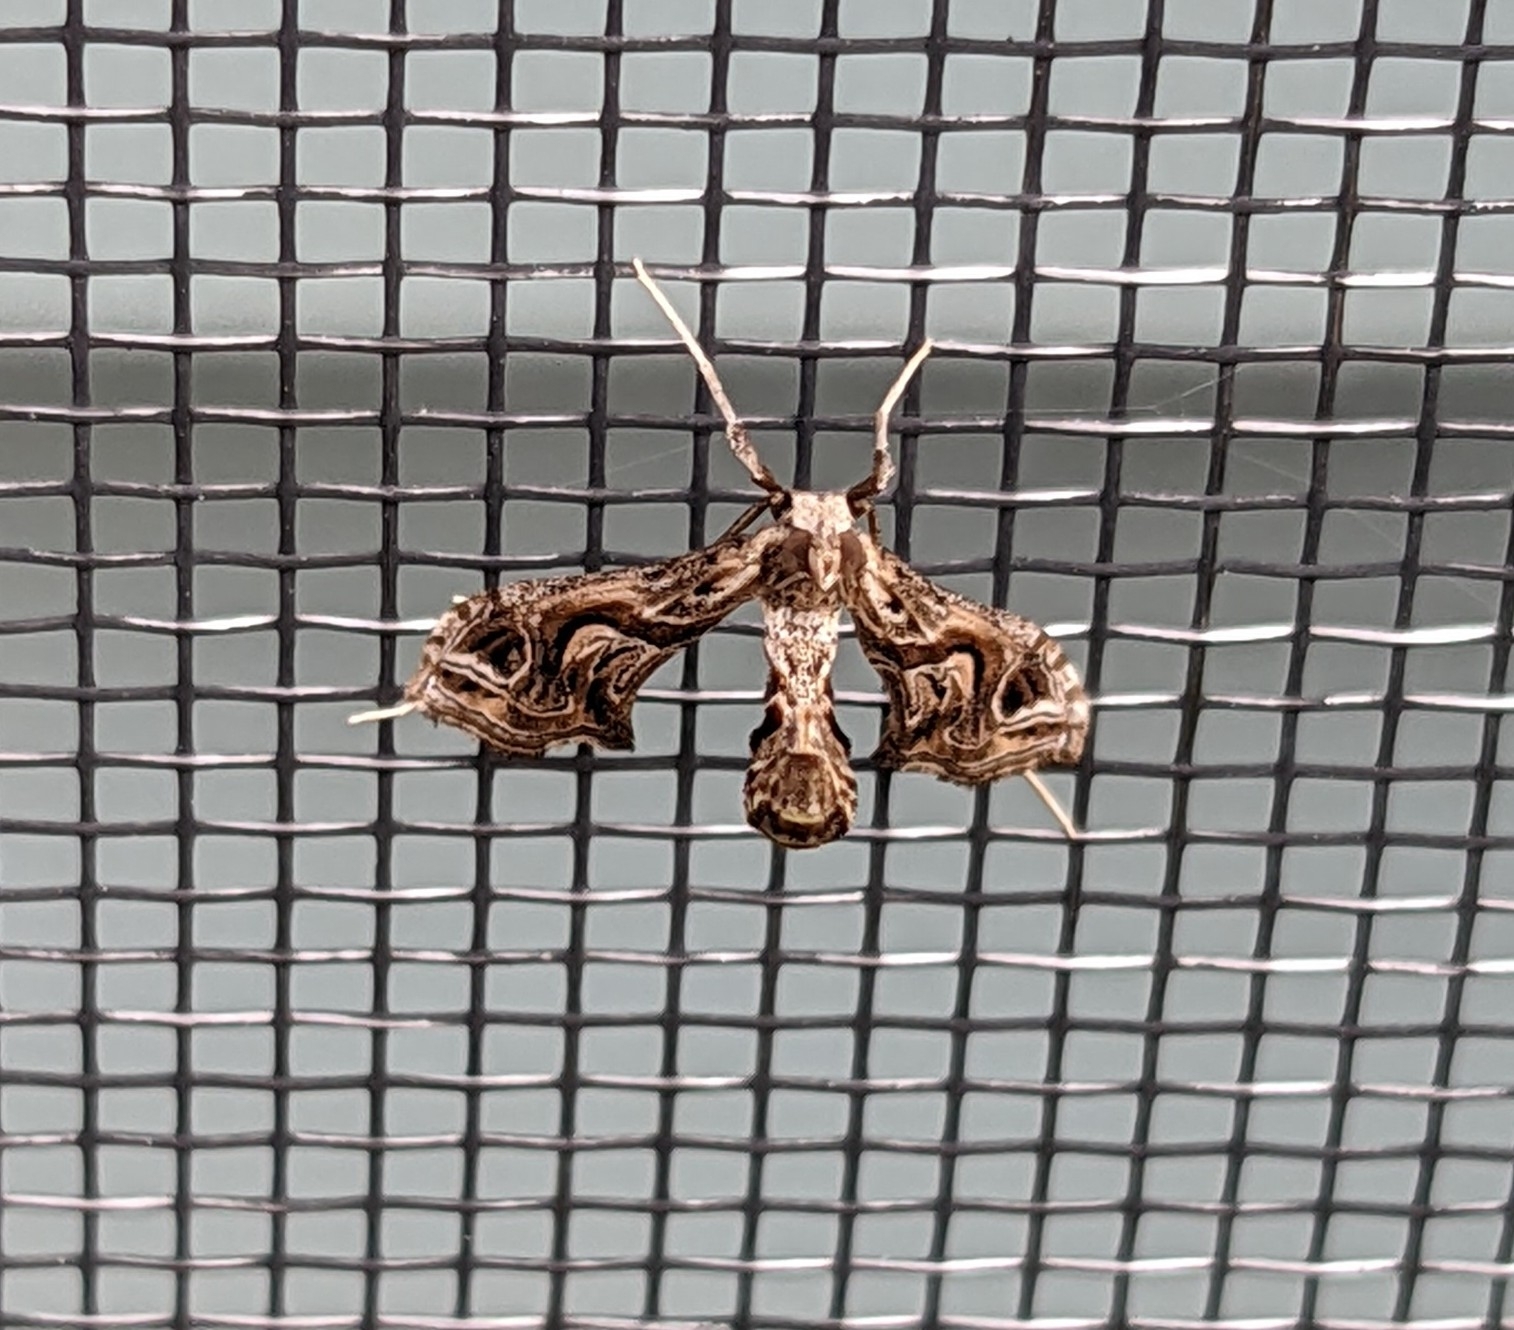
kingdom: Animalia
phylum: Arthropoda
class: Insecta
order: Lepidoptera
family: Crambidae
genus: Lineodes
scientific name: Lineodes integra
